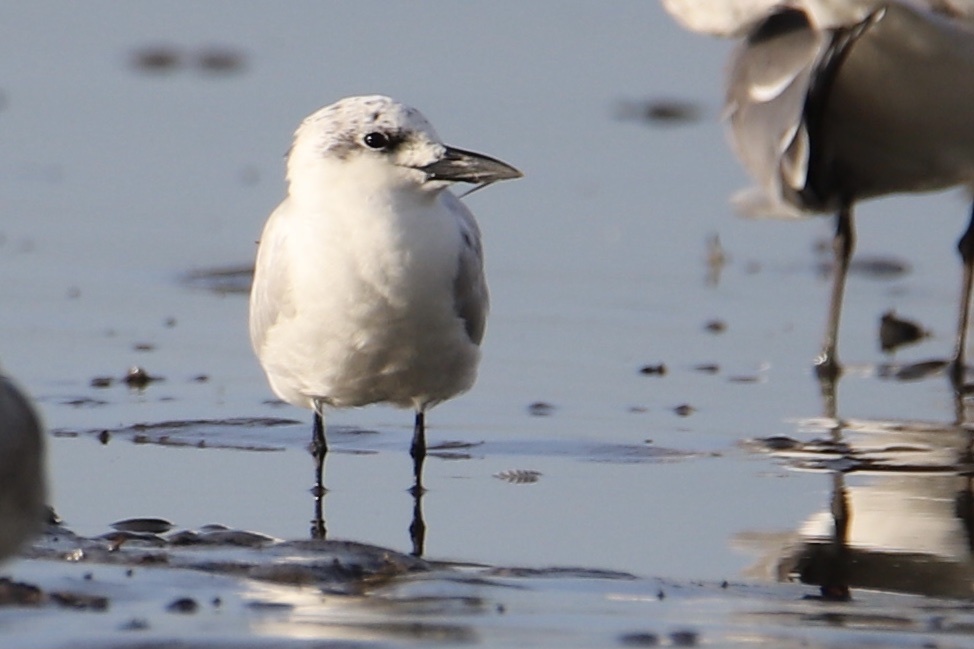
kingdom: Animalia
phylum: Chordata
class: Aves
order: Charadriiformes
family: Laridae
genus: Gelochelidon
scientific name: Gelochelidon nilotica
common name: Gull-billed tern
